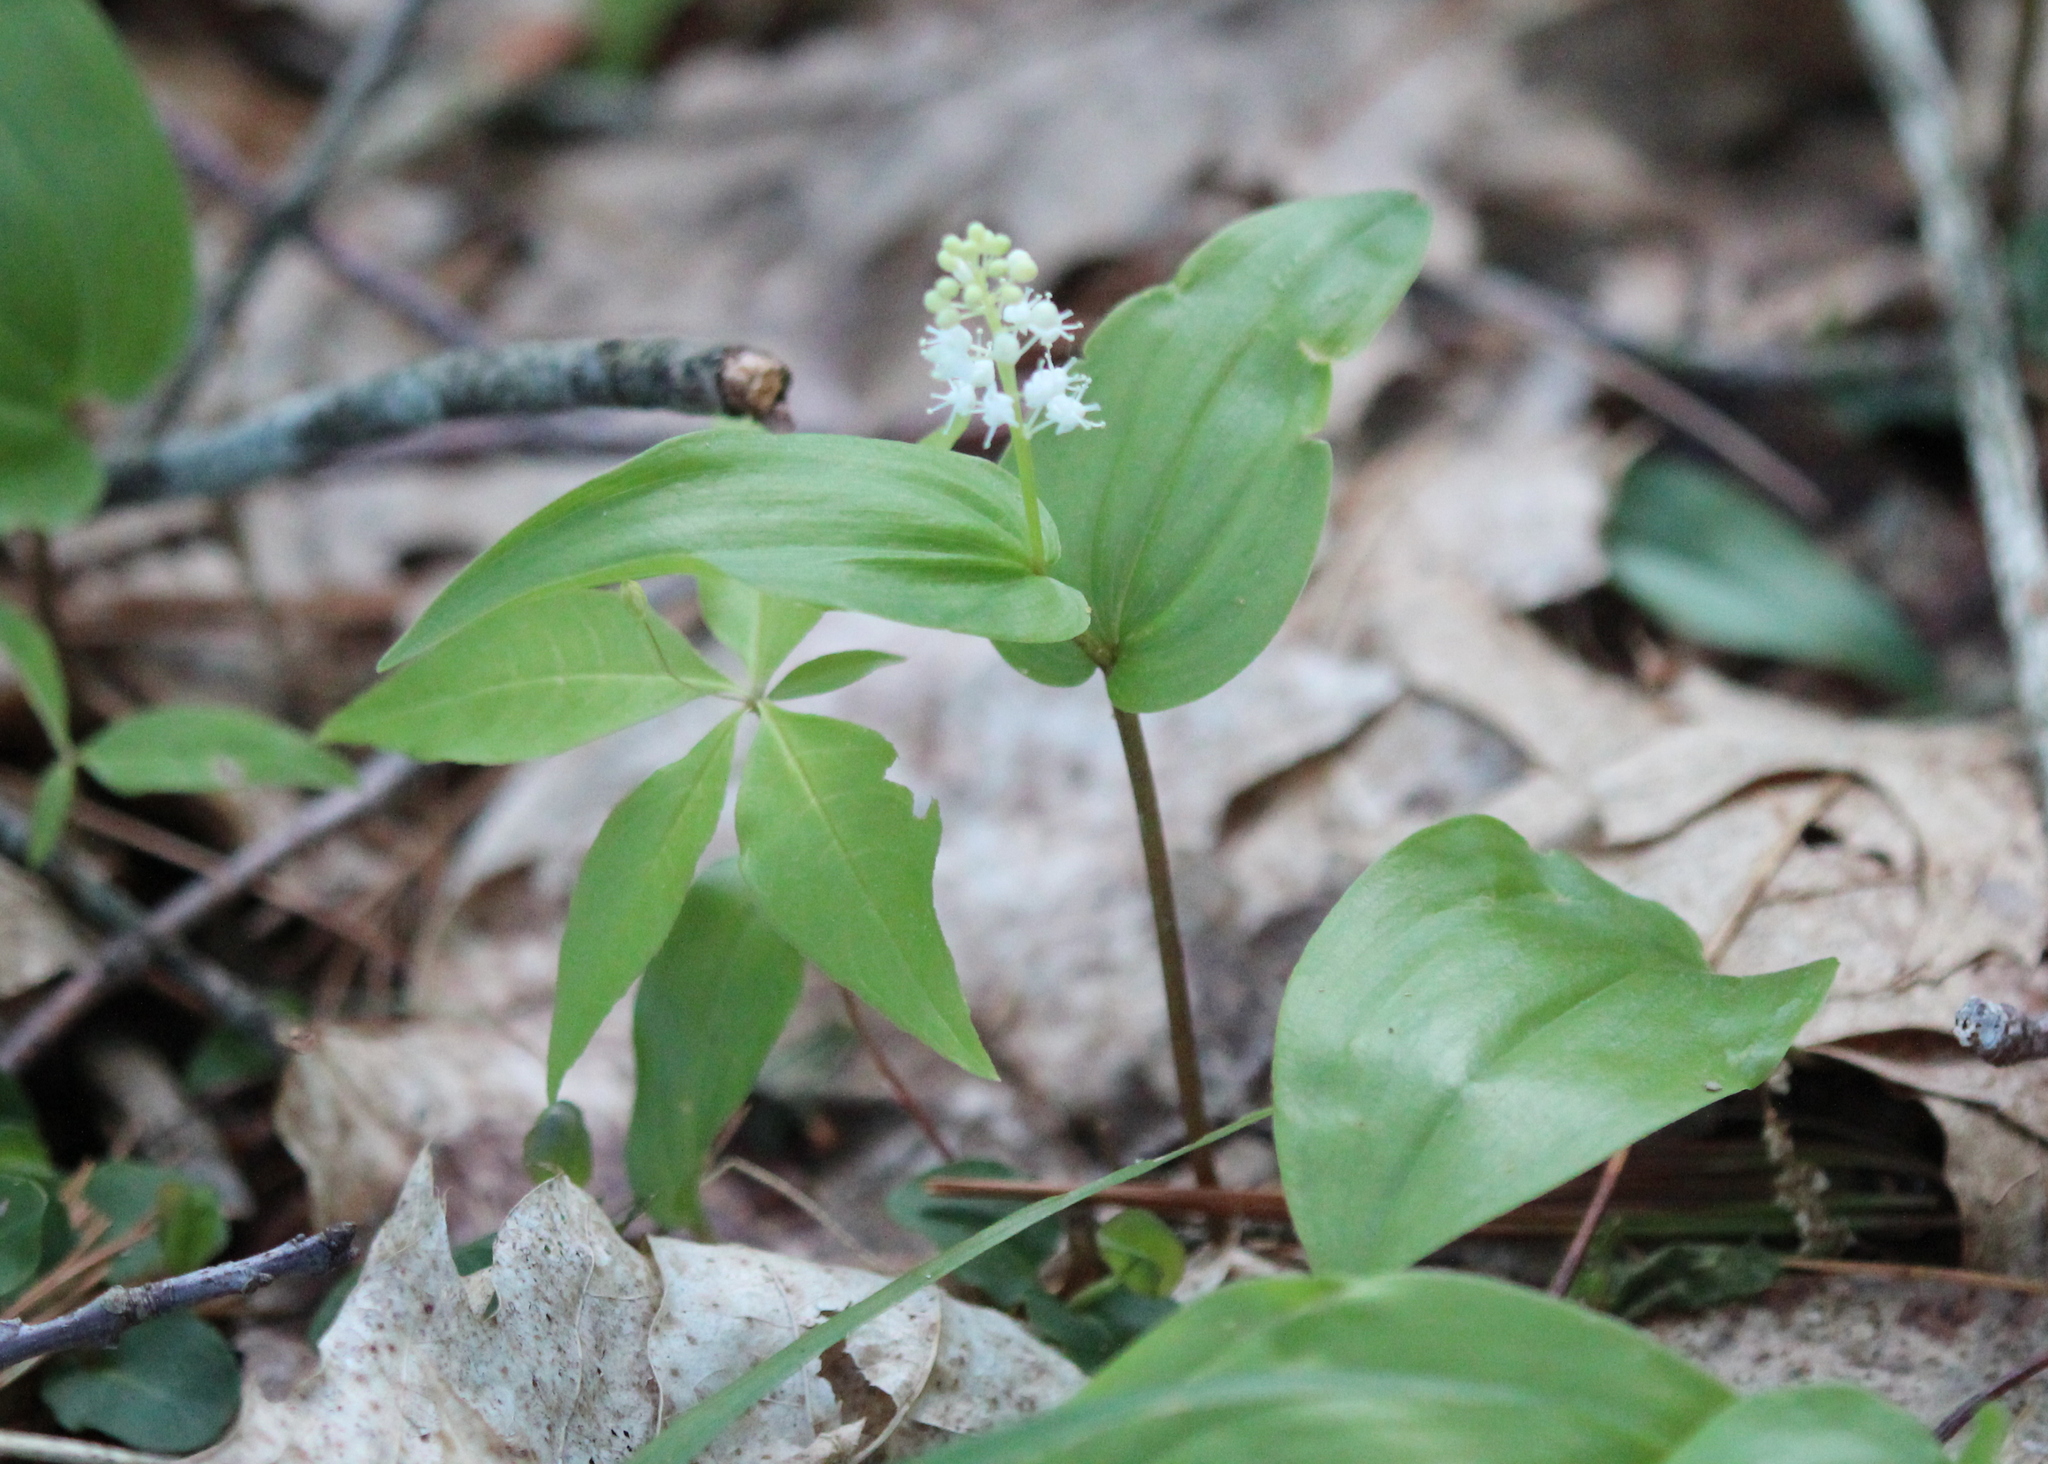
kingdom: Plantae
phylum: Tracheophyta
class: Liliopsida
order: Asparagales
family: Asparagaceae
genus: Maianthemum
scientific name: Maianthemum canadense
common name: False lily-of-the-valley
